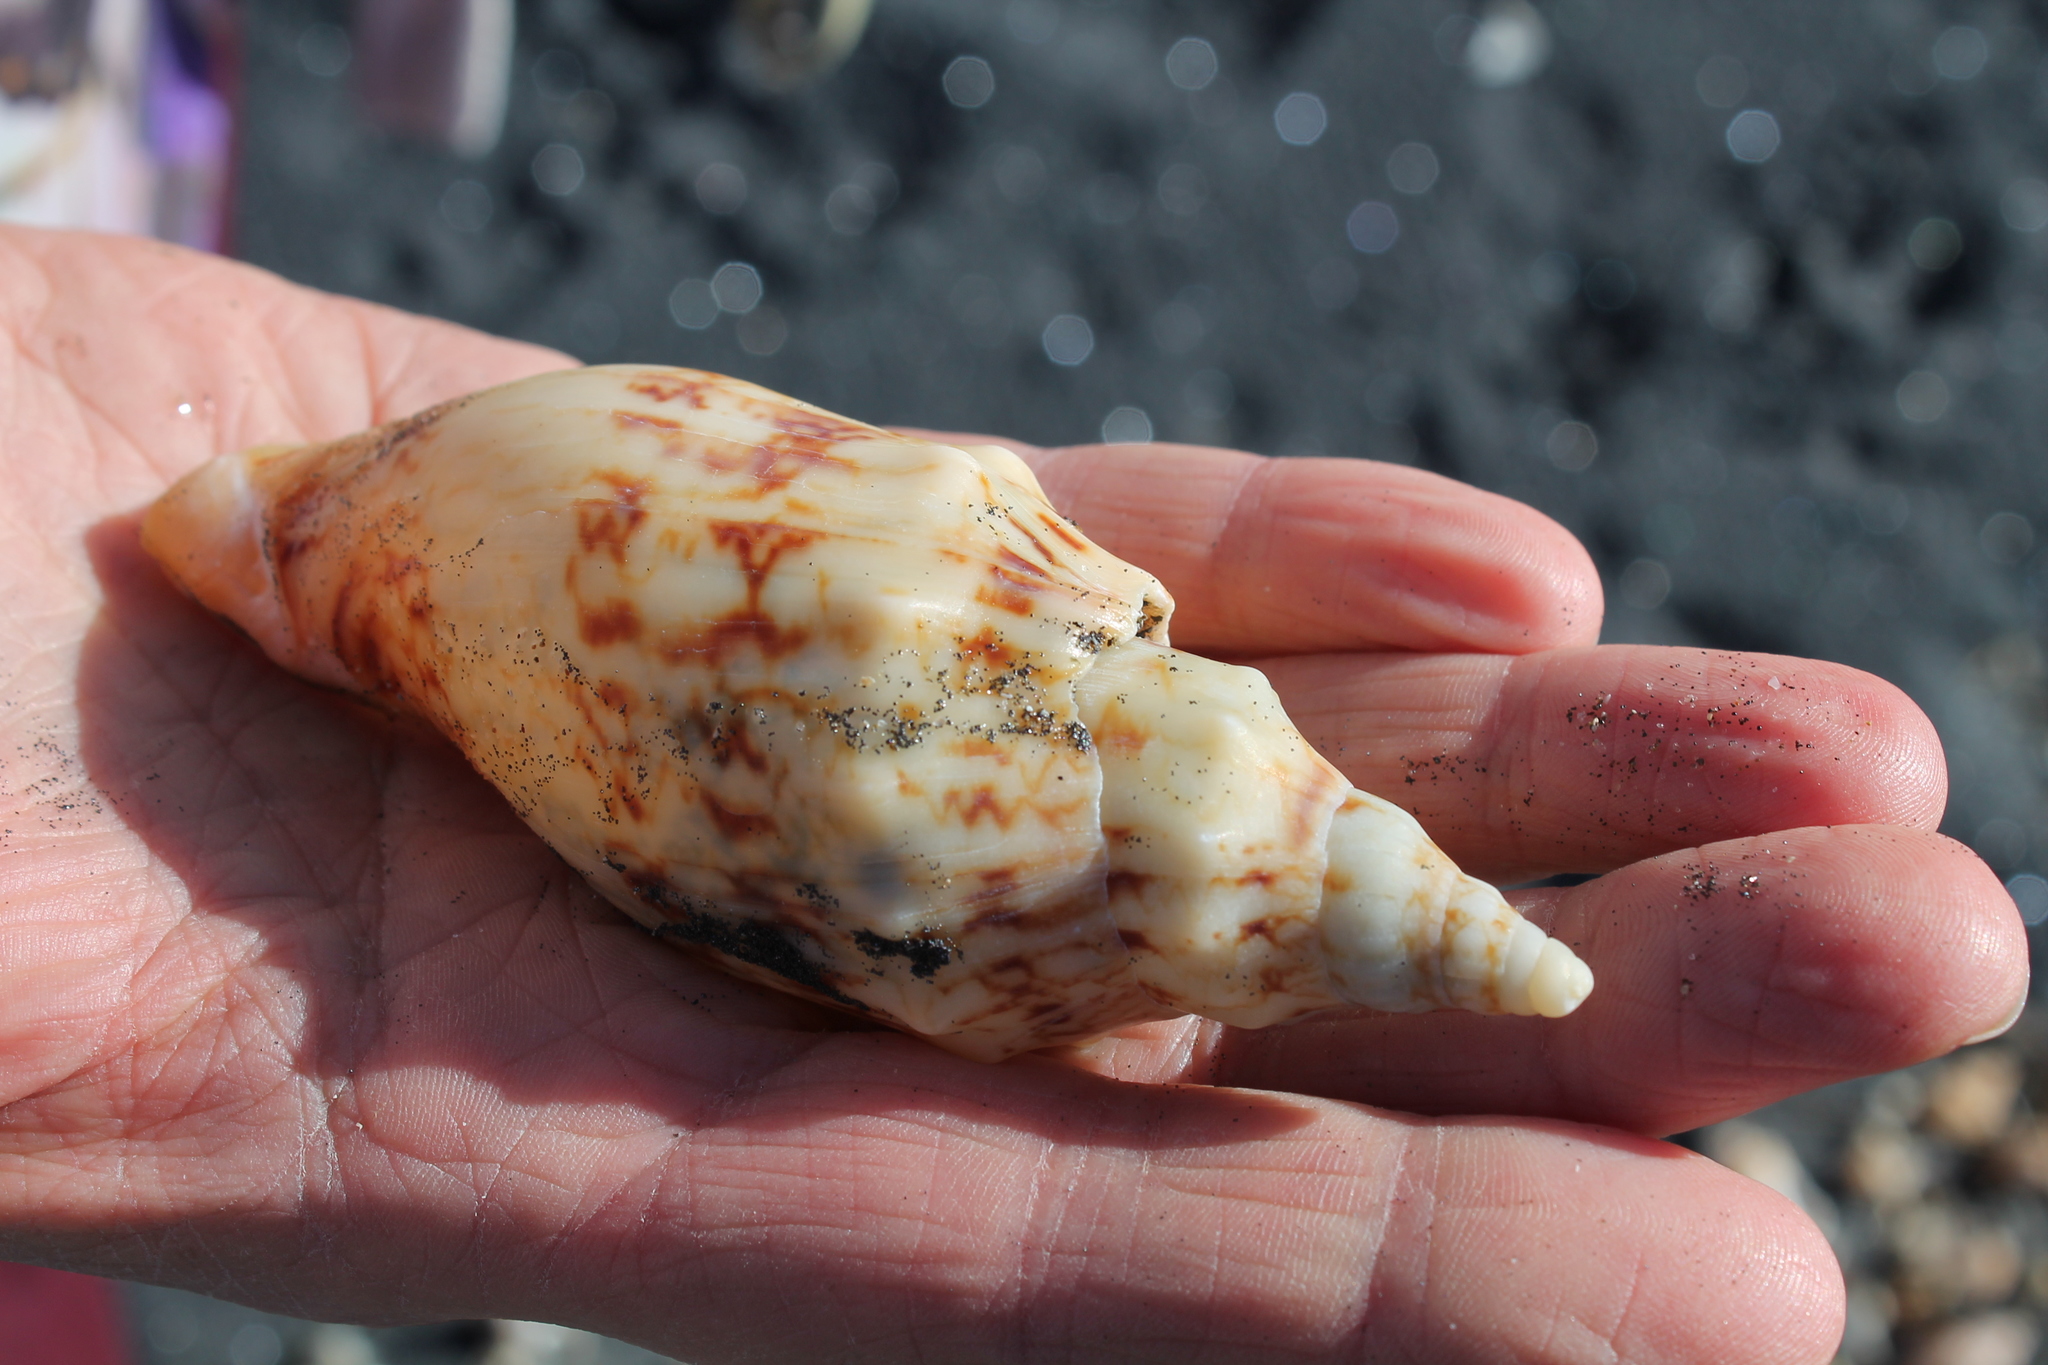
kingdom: Animalia
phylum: Mollusca
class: Gastropoda
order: Neogastropoda
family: Volutidae
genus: Alcithoe
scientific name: Alcithoe arabica
